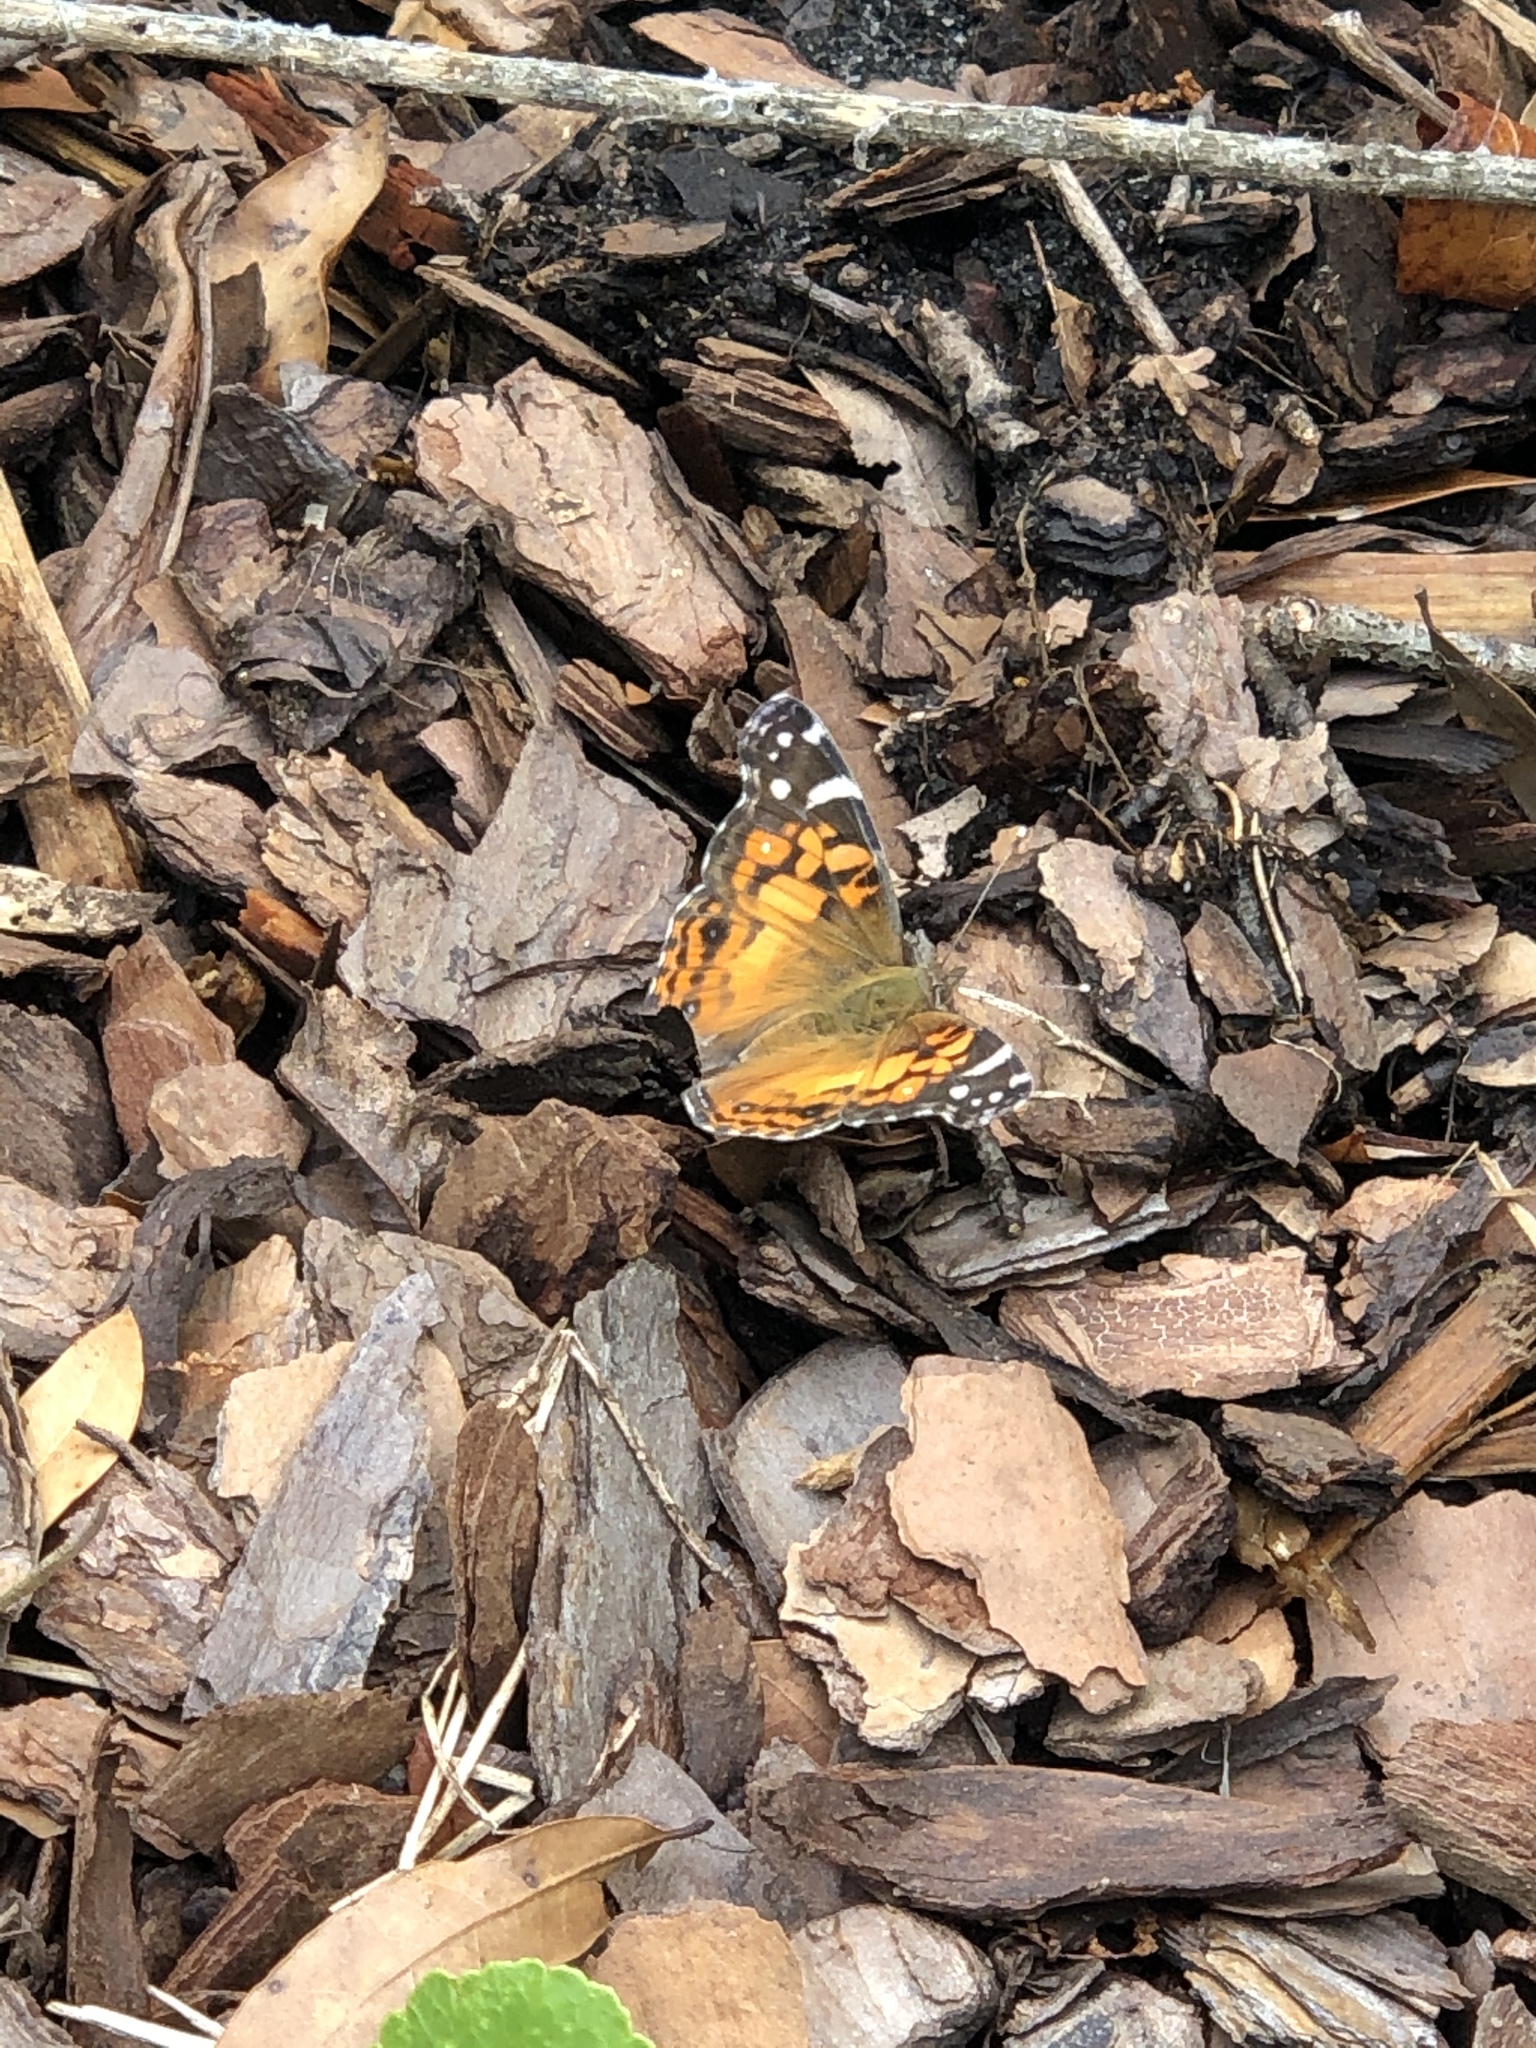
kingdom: Animalia
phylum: Arthropoda
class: Insecta
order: Lepidoptera
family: Nymphalidae
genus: Vanessa
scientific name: Vanessa virginiensis
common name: American lady
